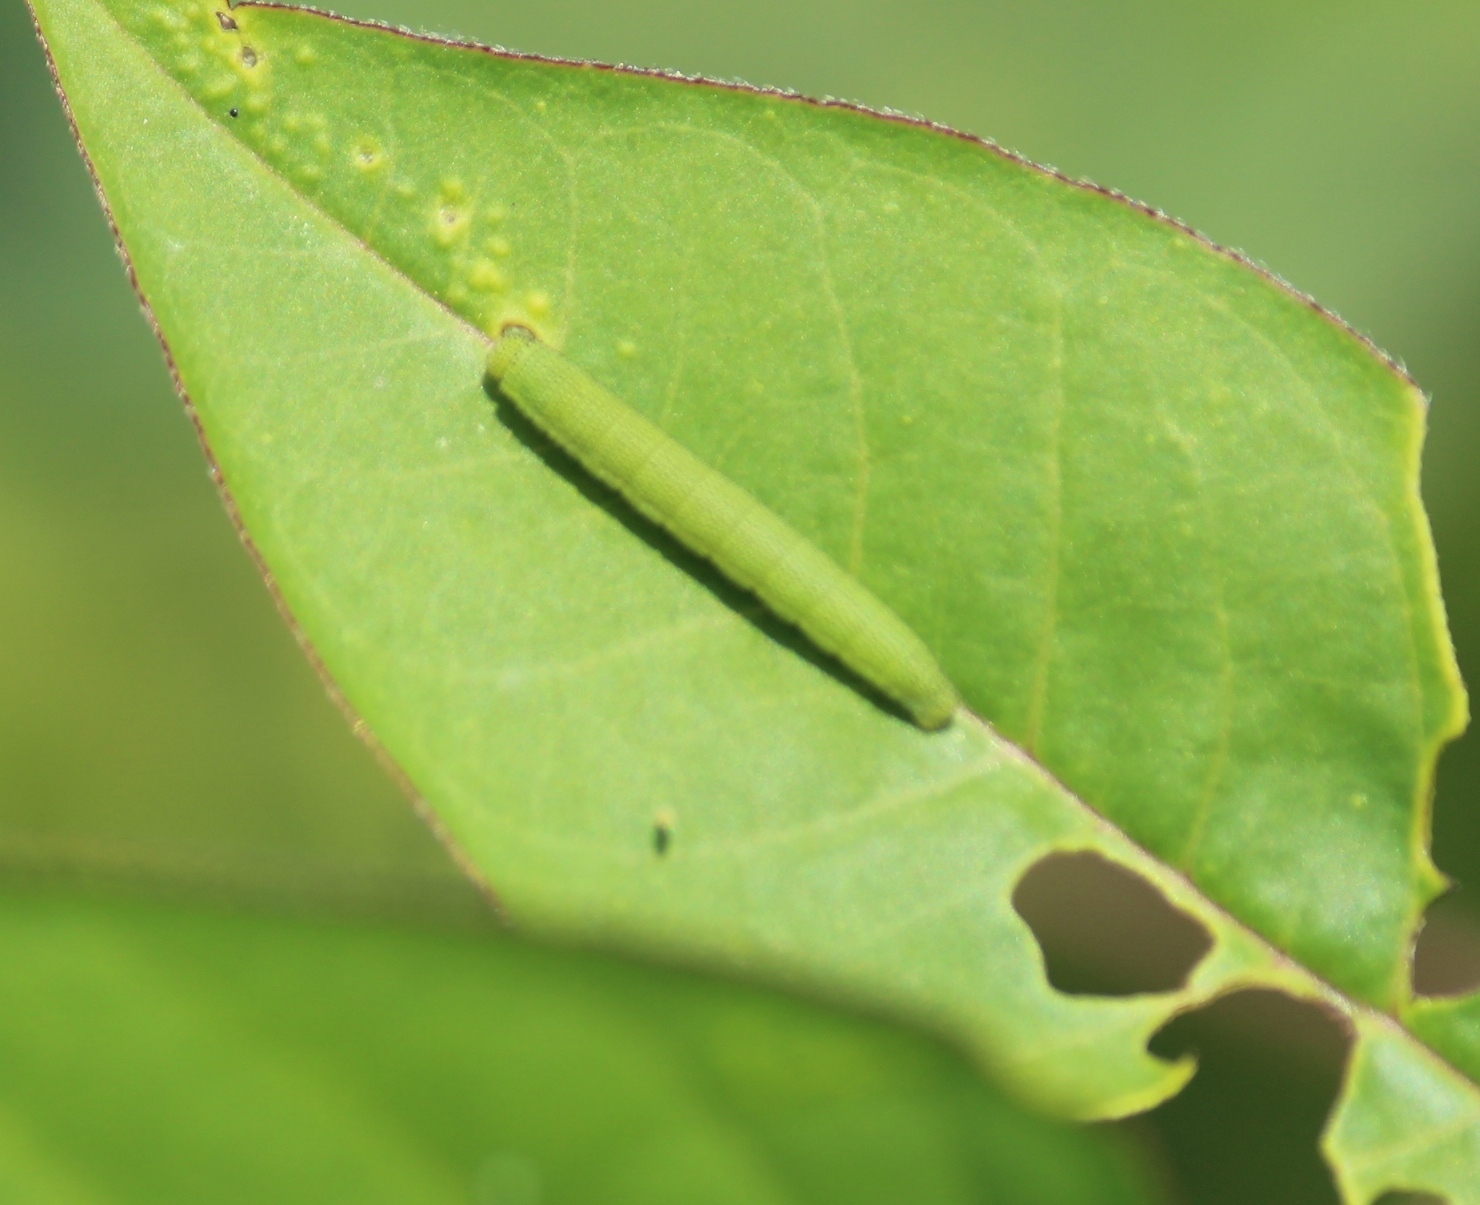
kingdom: Animalia
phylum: Arthropoda
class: Insecta
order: Lepidoptera
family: Pieridae
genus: Catopsilia
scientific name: Catopsilia pyranthe
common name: Mottled emigrant
